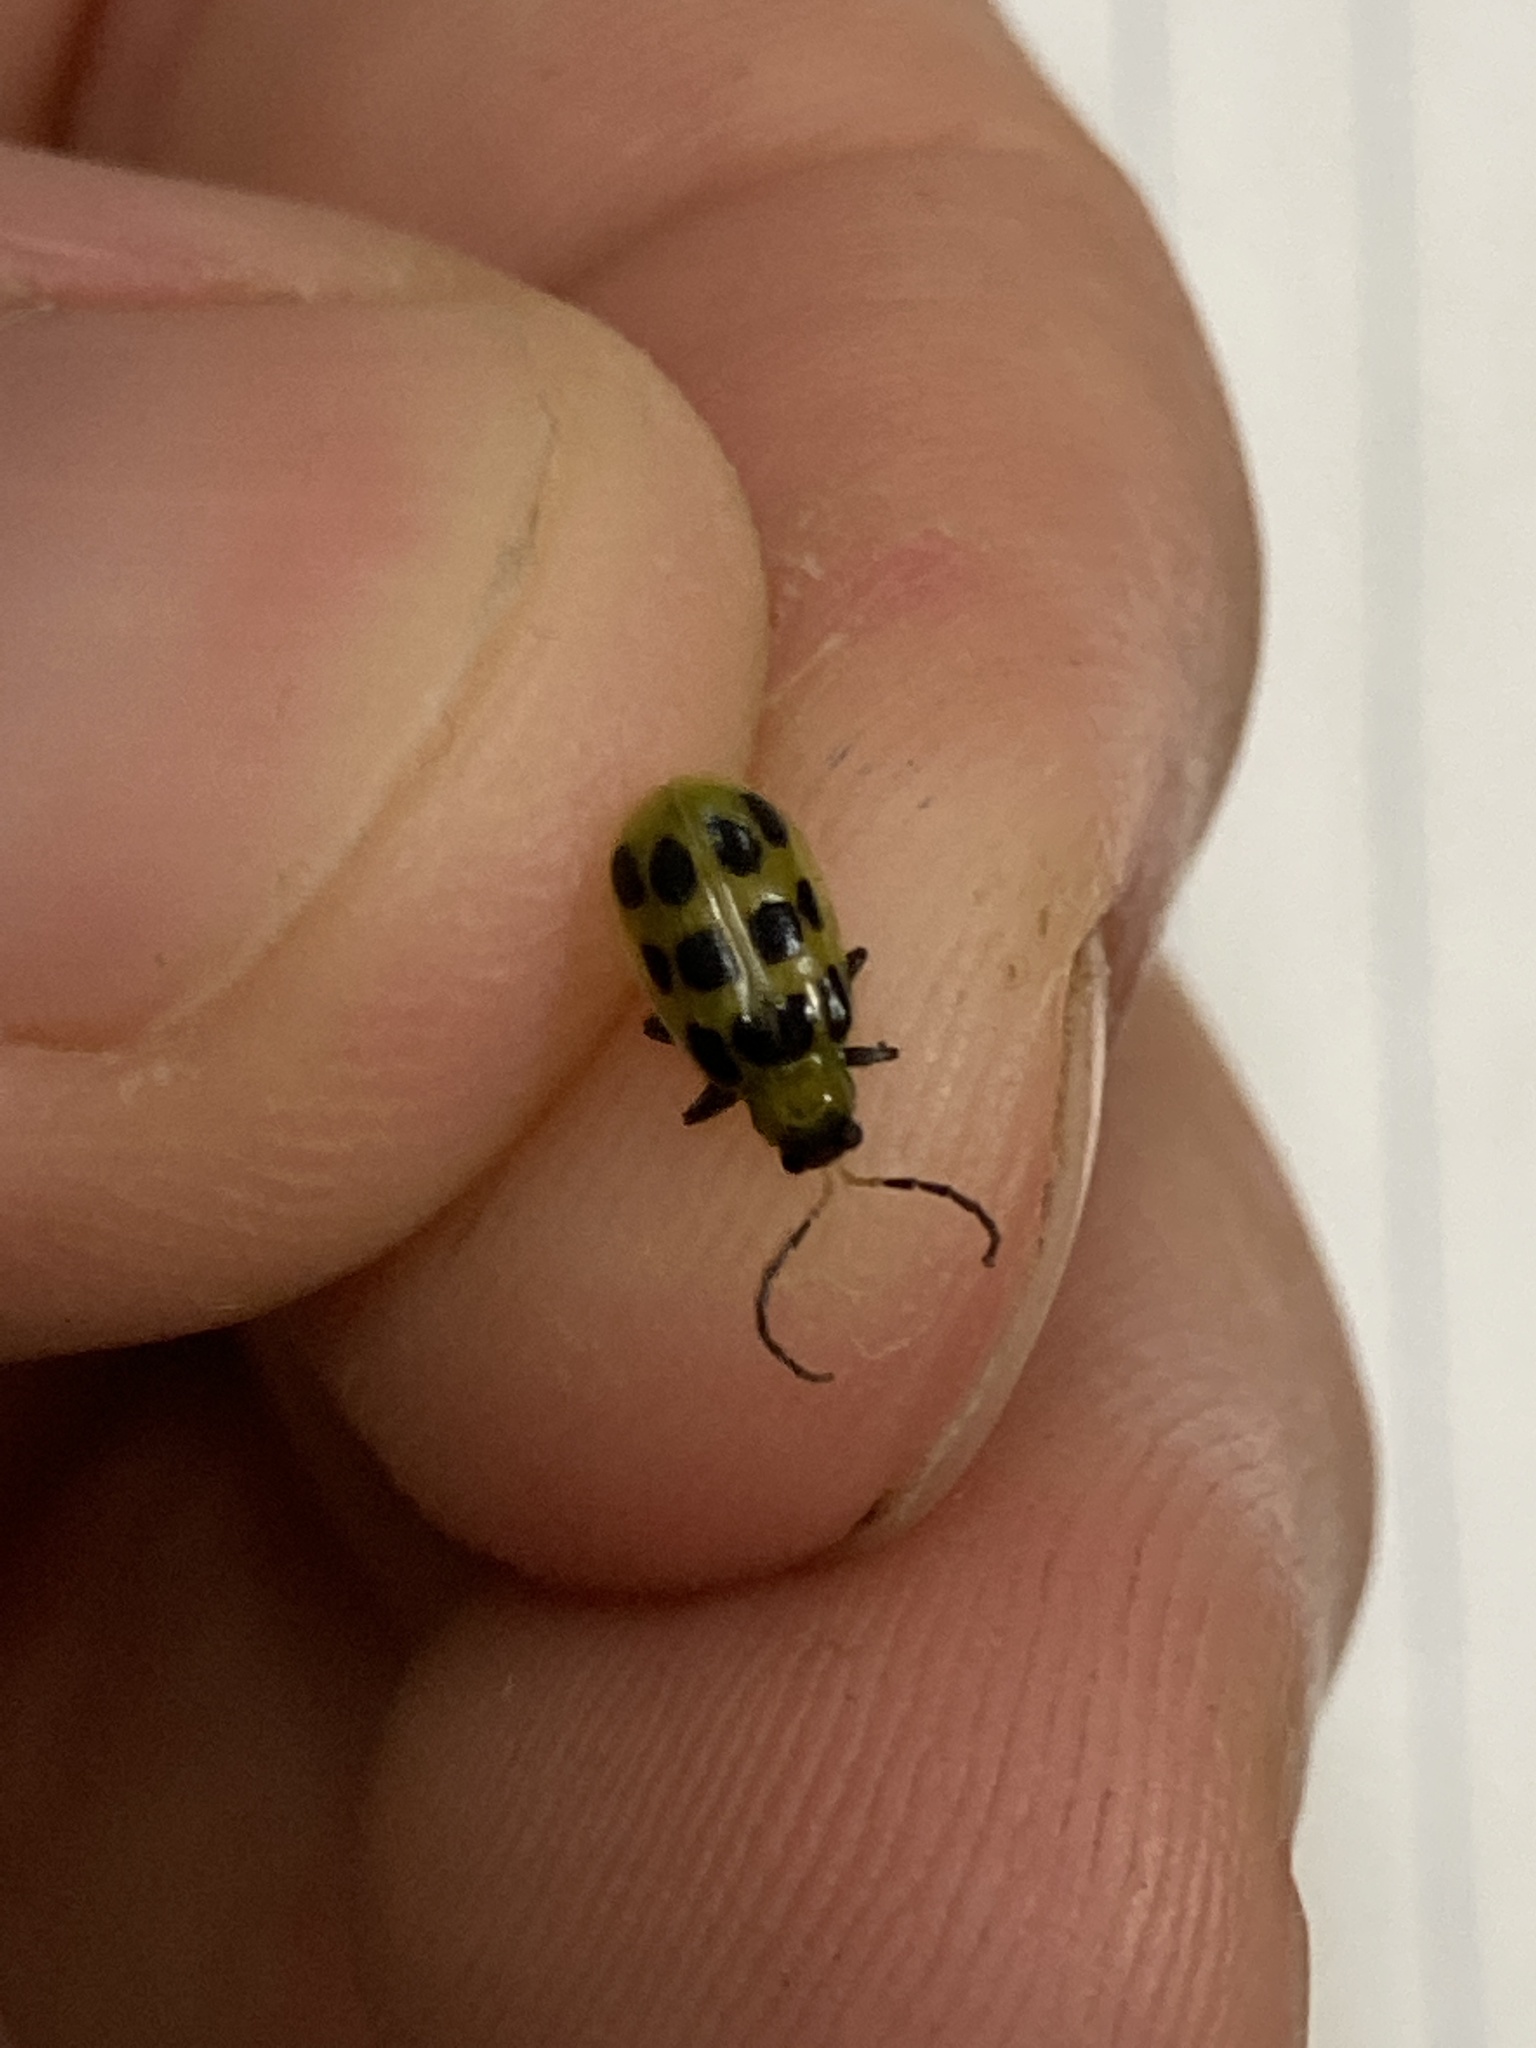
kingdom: Animalia
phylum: Arthropoda
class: Insecta
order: Coleoptera
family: Chrysomelidae
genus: Diabrotica
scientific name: Diabrotica undecimpunctata
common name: Spotted cucumber beetle
